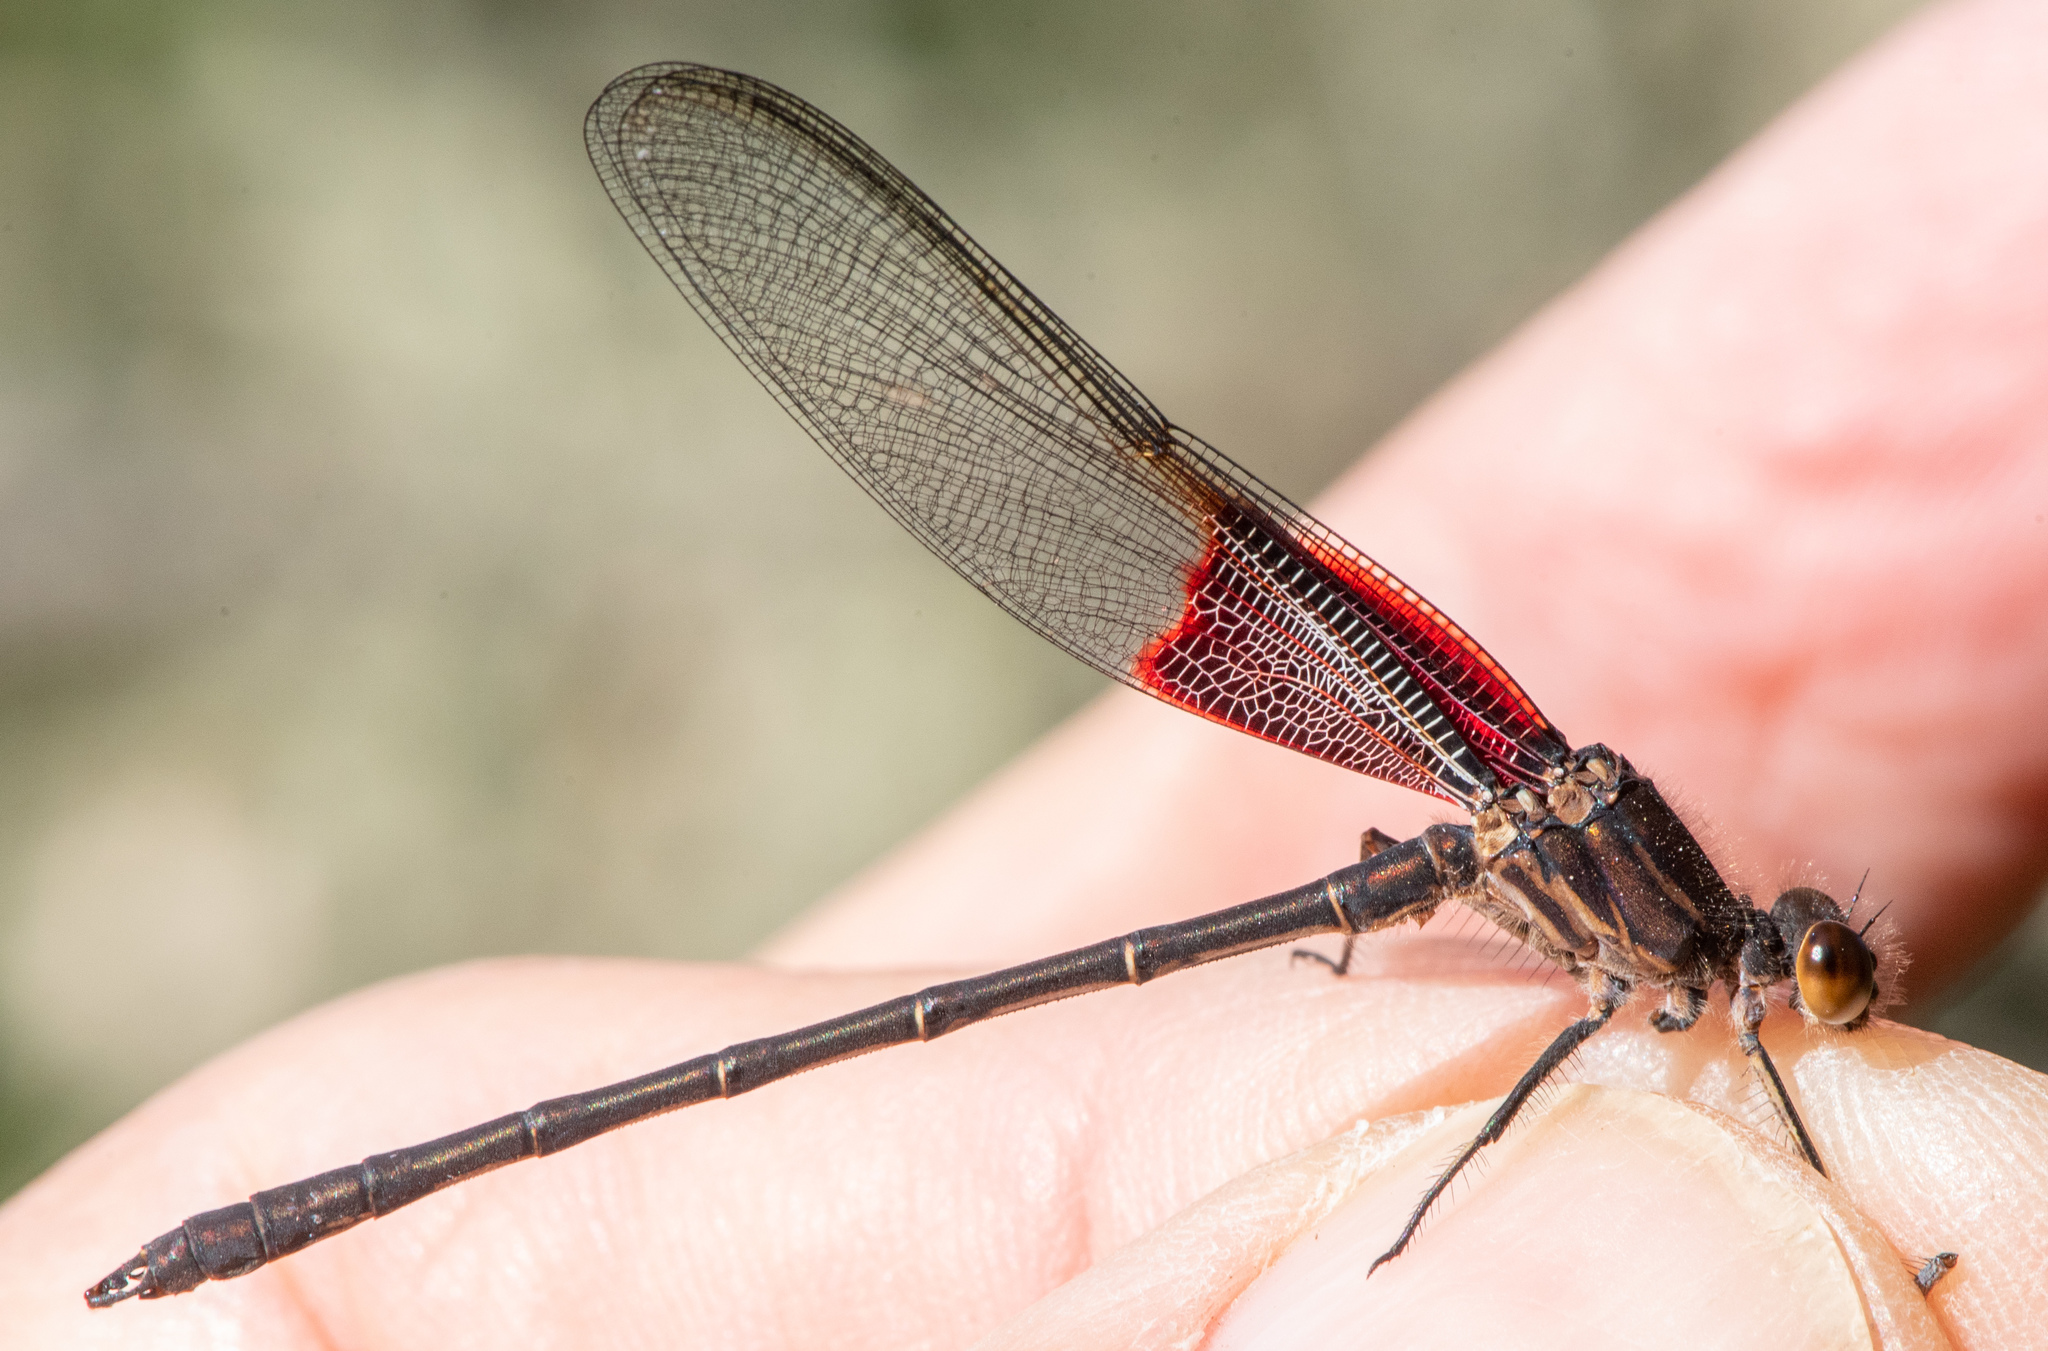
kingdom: Animalia
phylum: Arthropoda
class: Insecta
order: Odonata
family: Calopterygidae
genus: Hetaerina
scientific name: Hetaerina americana
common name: American rubyspot
